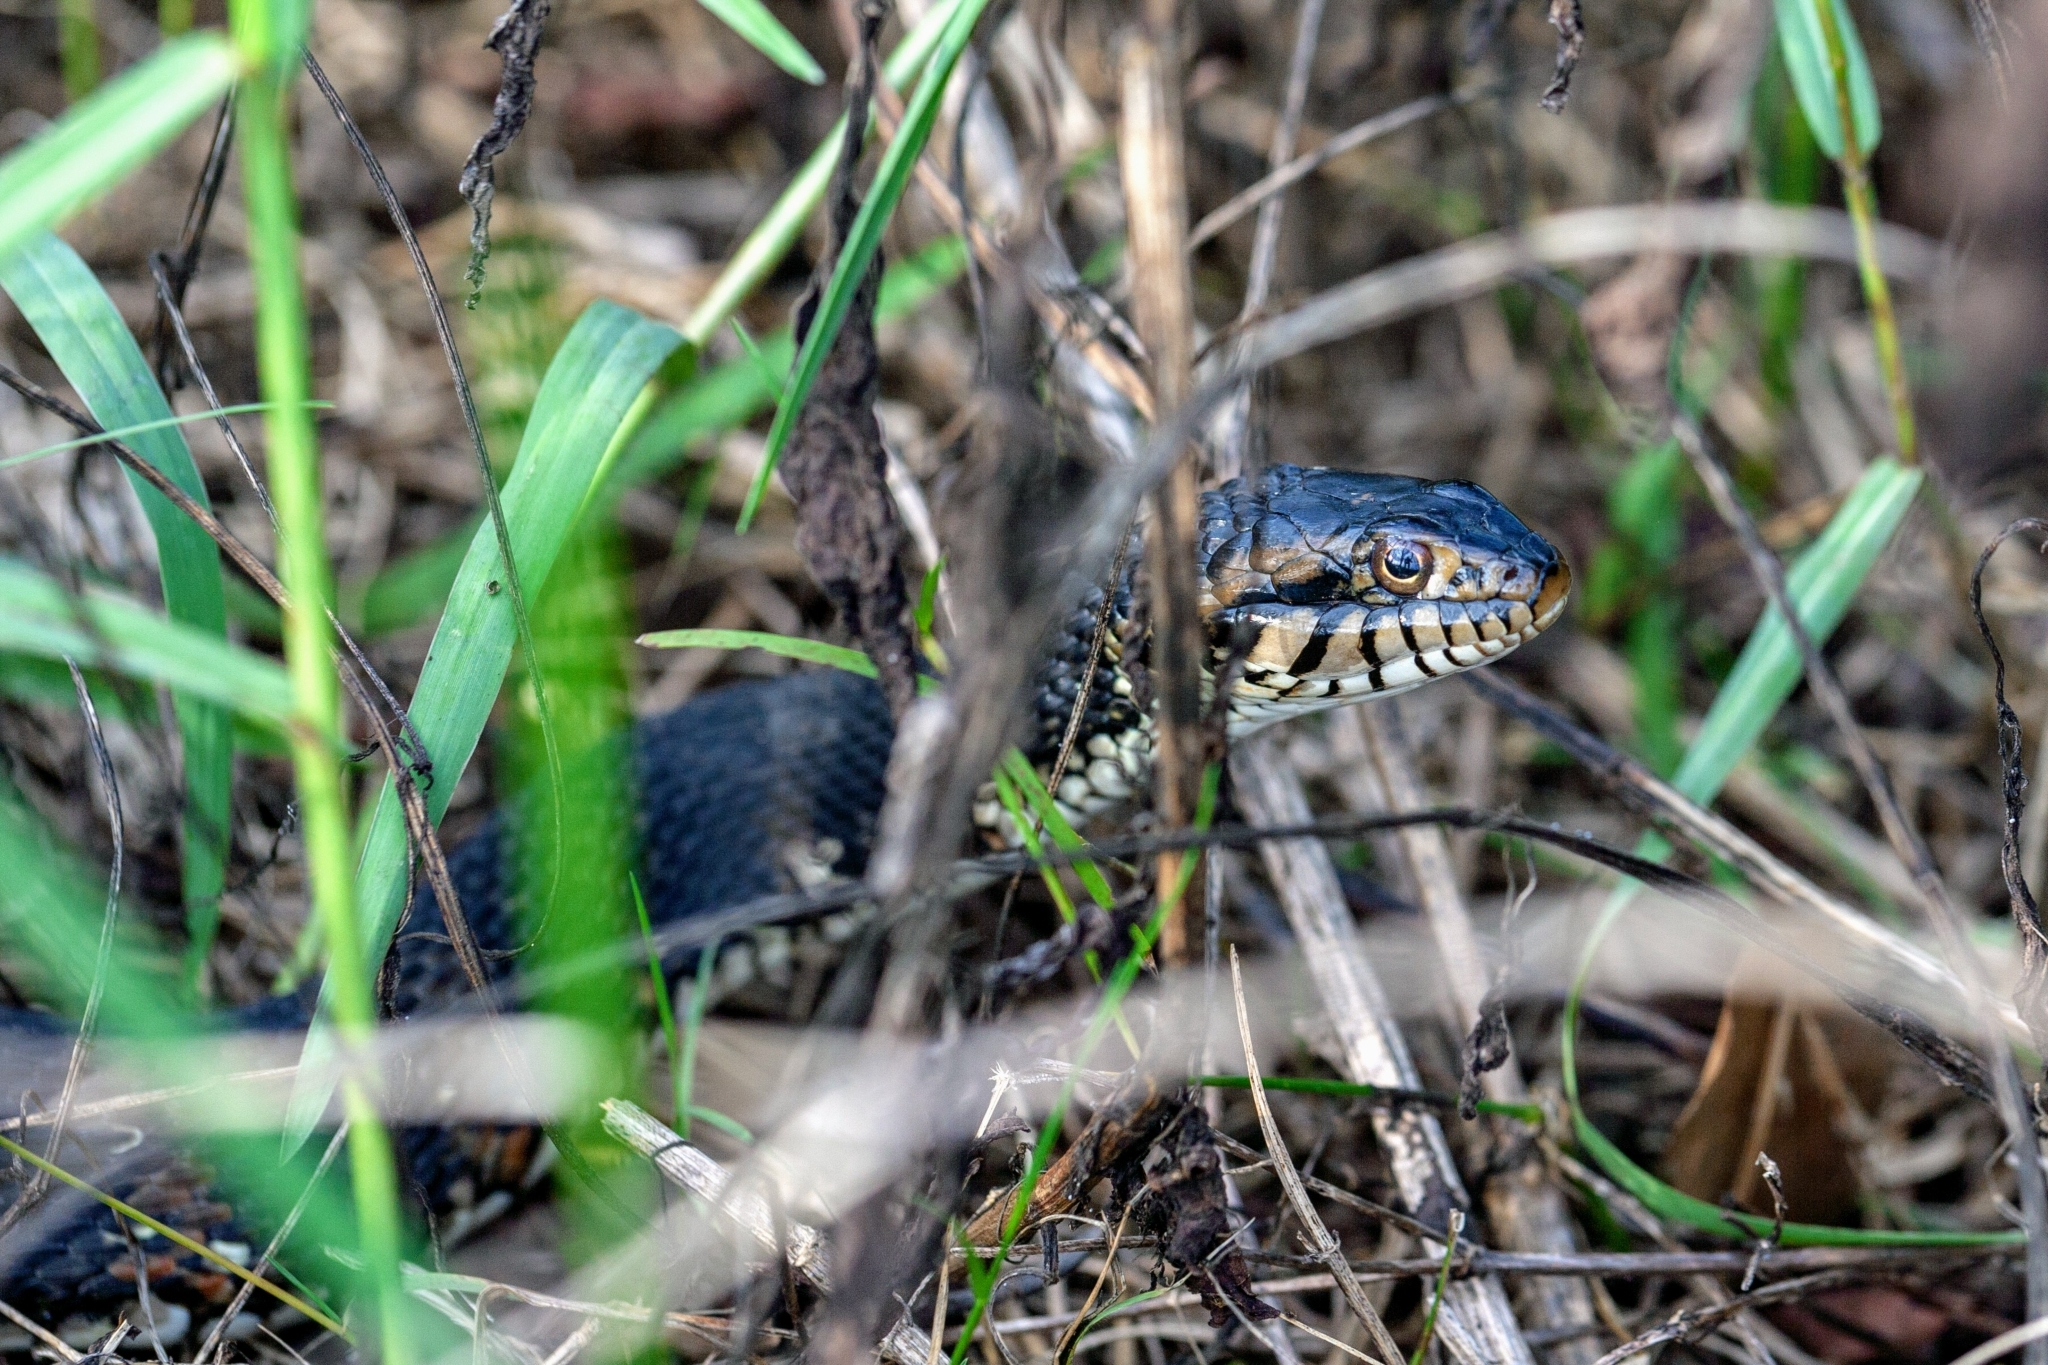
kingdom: Animalia
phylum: Chordata
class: Squamata
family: Colubridae
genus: Nerodia
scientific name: Nerodia fasciata
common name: Southern water snake
